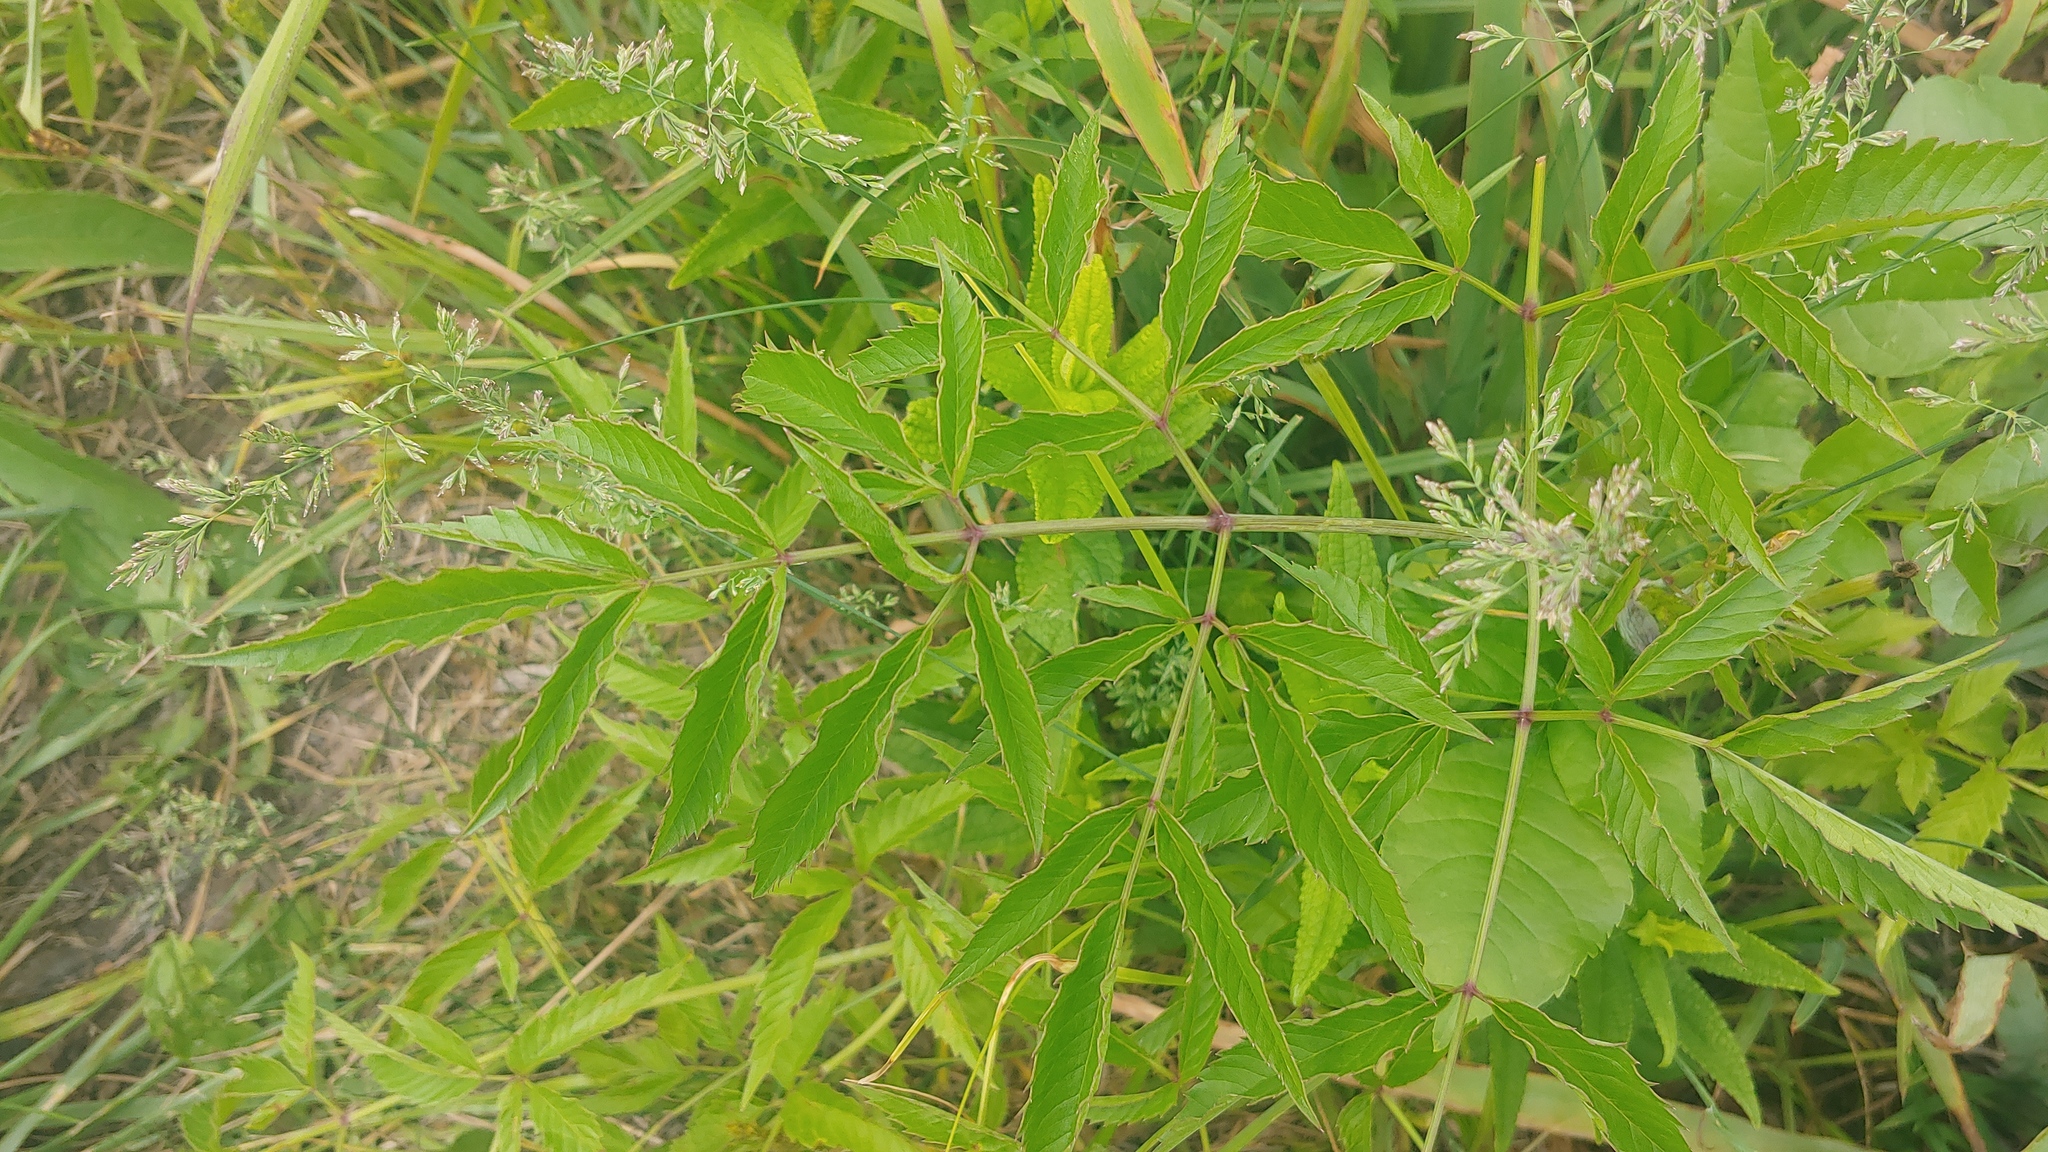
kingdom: Plantae
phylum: Tracheophyta
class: Magnoliopsida
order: Apiales
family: Apiaceae
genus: Cicuta
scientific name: Cicuta maculata
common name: Spotted cowbane
